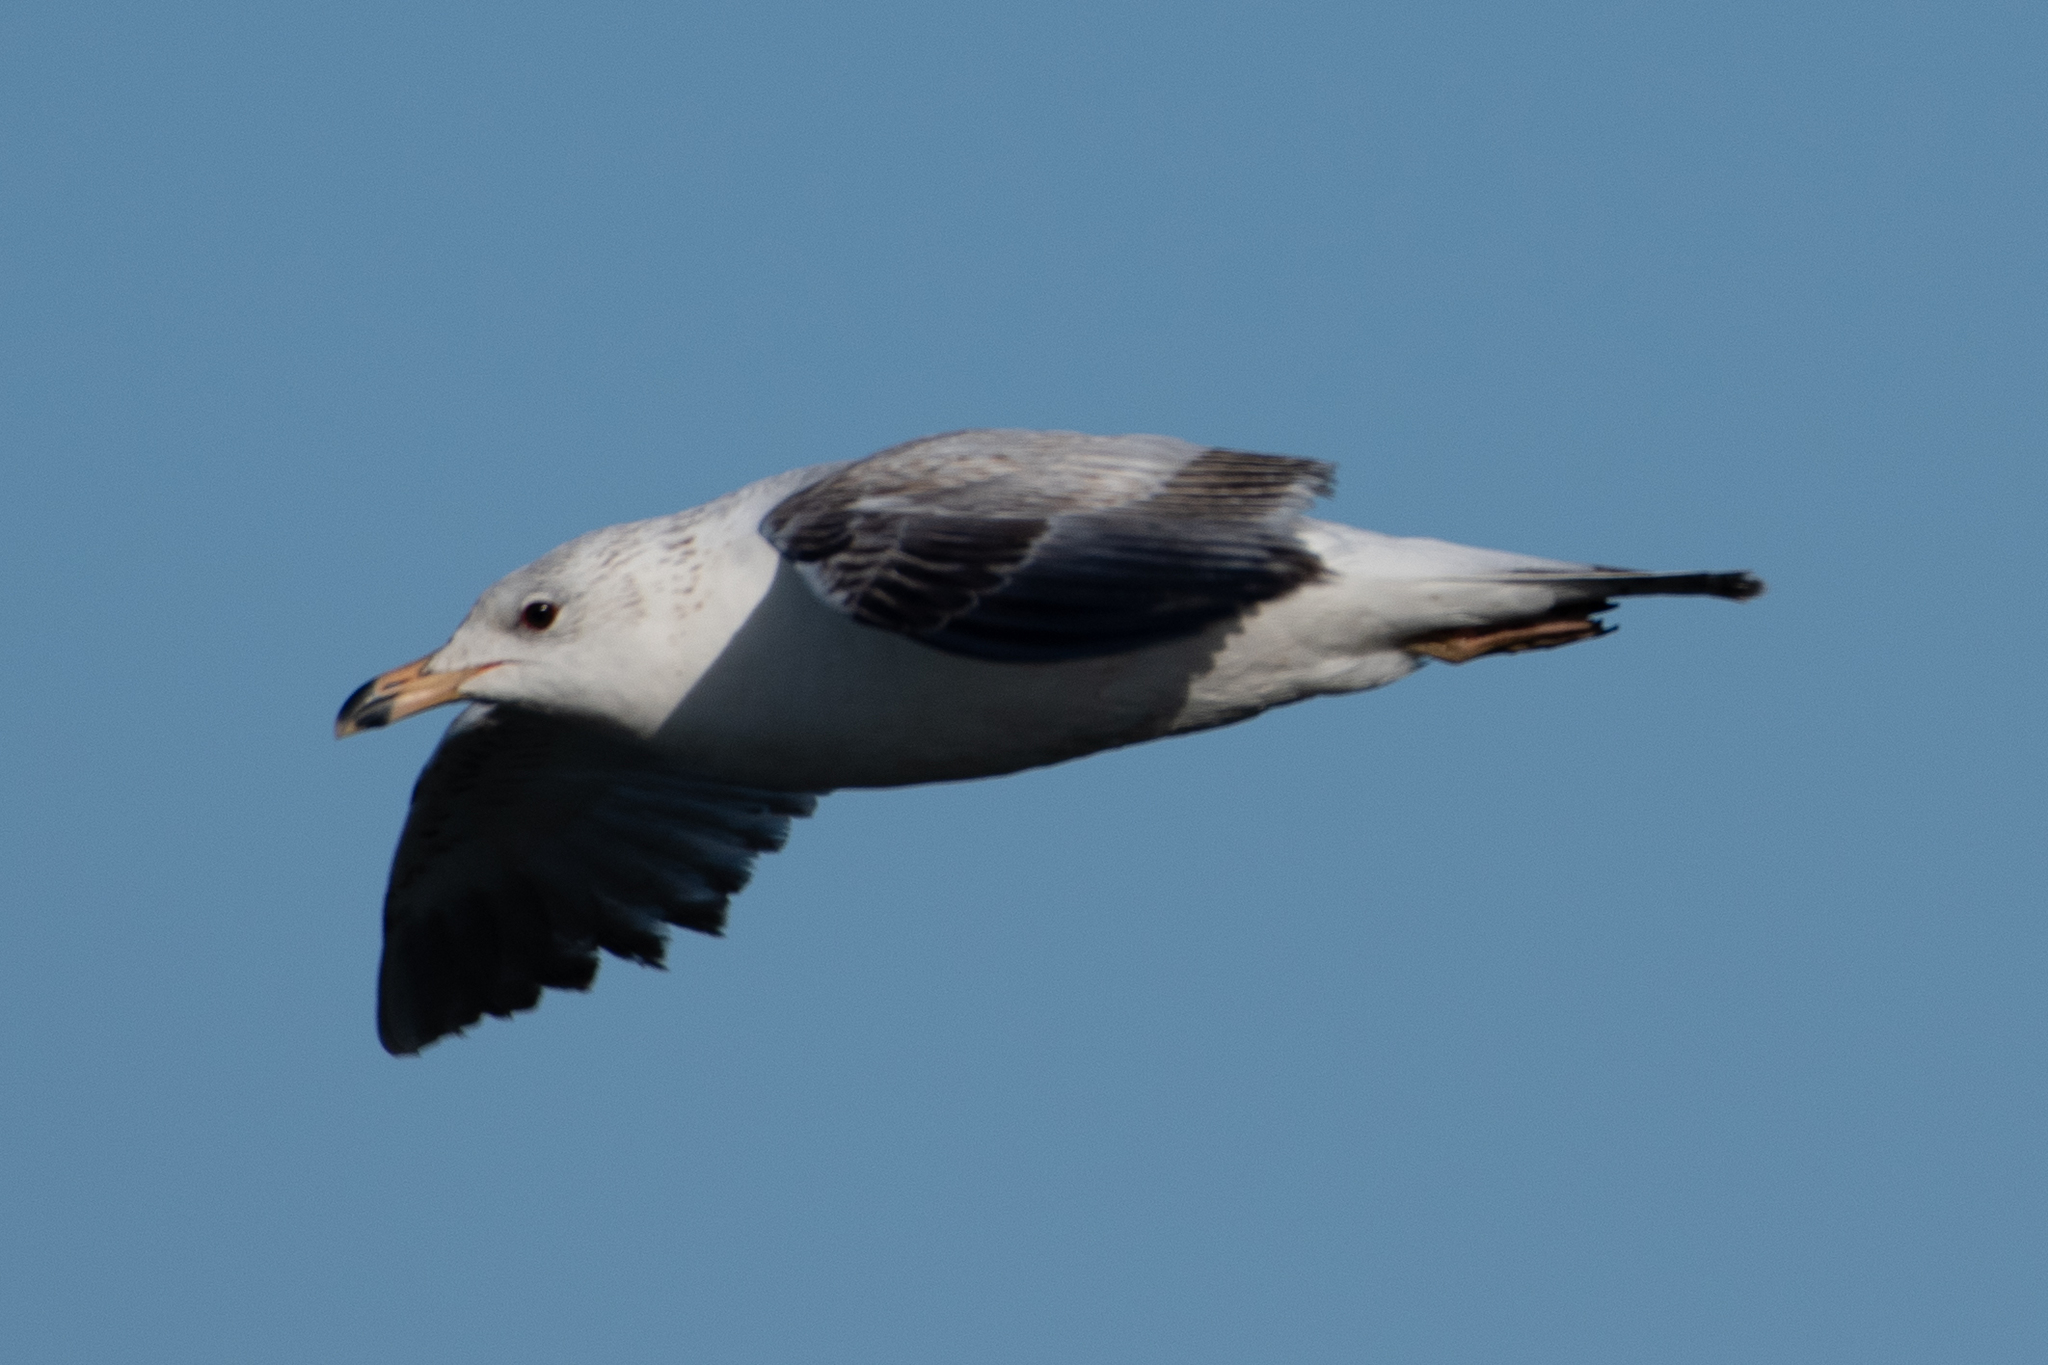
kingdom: Animalia
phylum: Chordata
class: Aves
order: Charadriiformes
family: Laridae
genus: Larus
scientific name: Larus delawarensis
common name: Ring-billed gull
